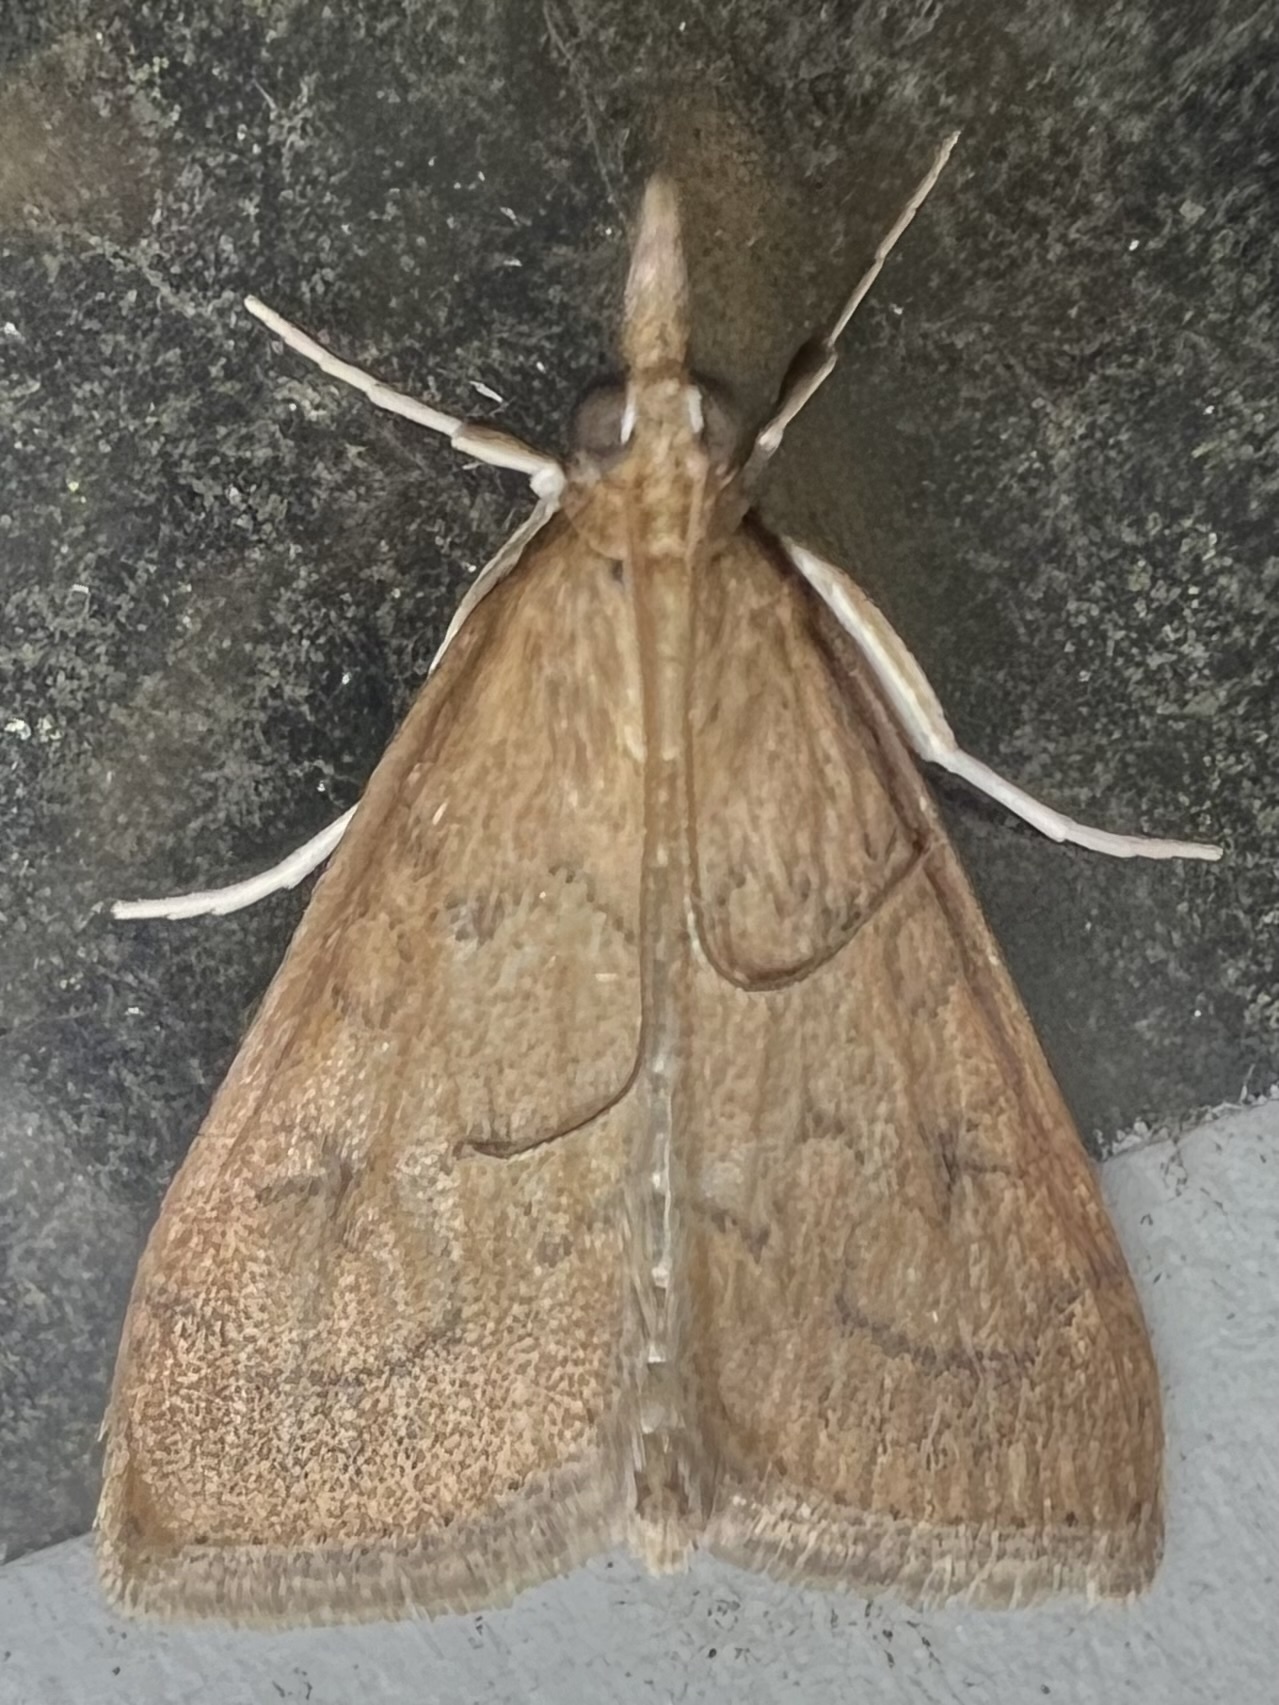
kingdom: Animalia
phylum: Arthropoda
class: Insecta
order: Lepidoptera
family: Crambidae
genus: Udea
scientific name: Udea rubigalis
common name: Celery leaftier moth
